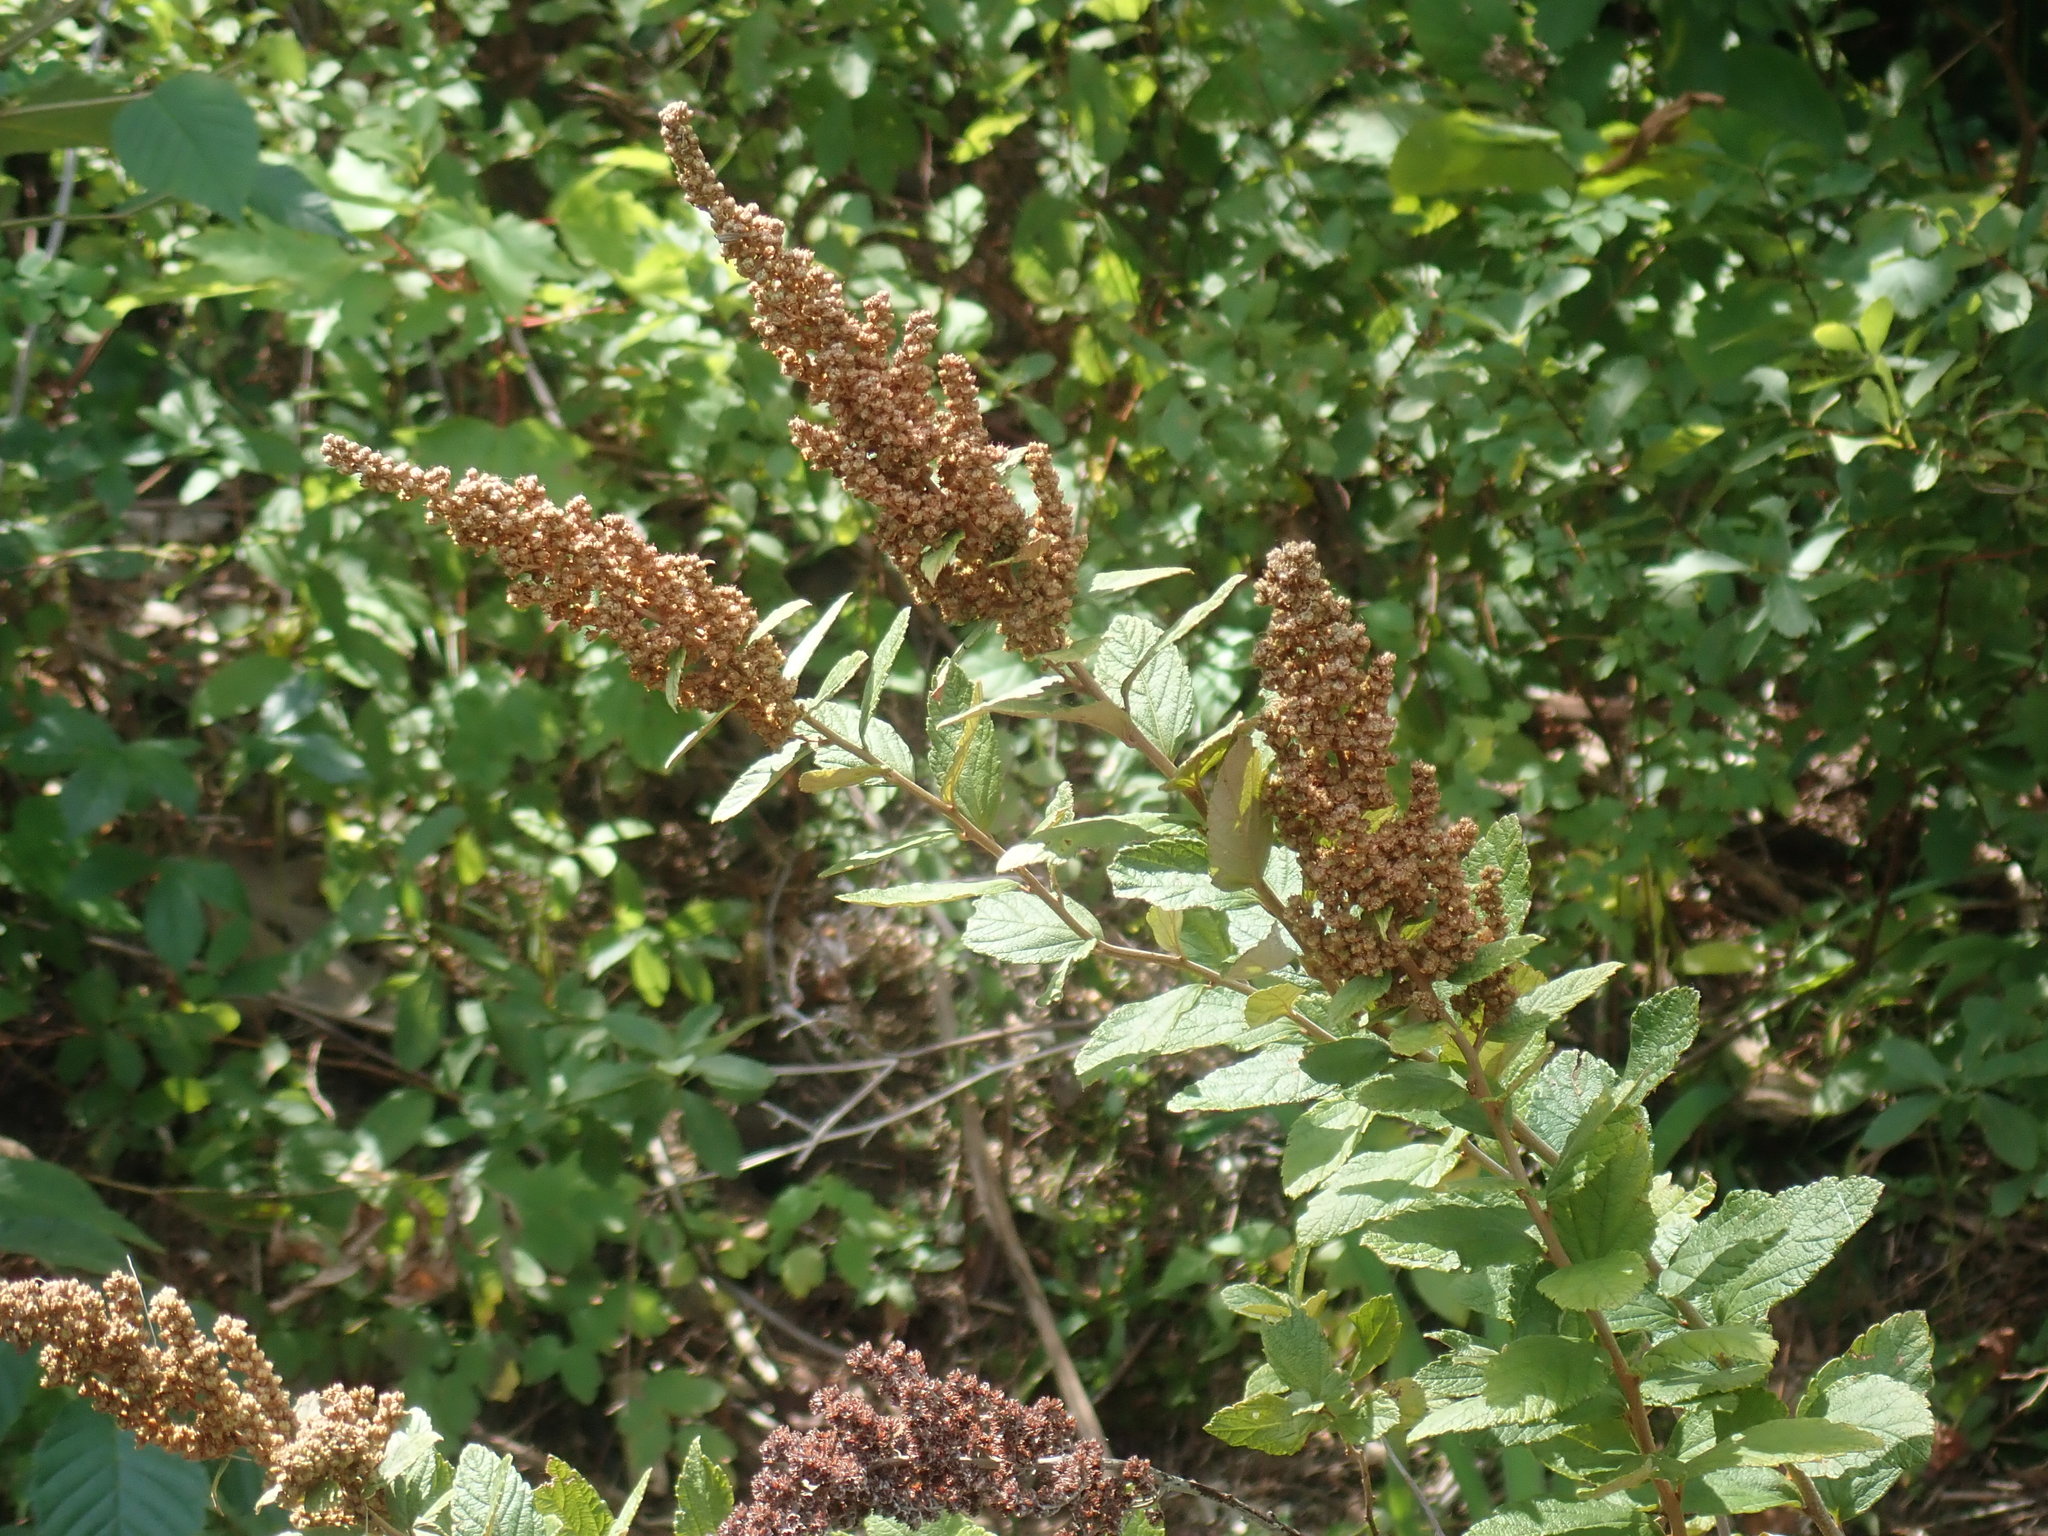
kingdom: Plantae
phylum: Tracheophyta
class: Magnoliopsida
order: Rosales
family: Rosaceae
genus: Spiraea
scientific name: Spiraea tomentosa
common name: Hardhack
